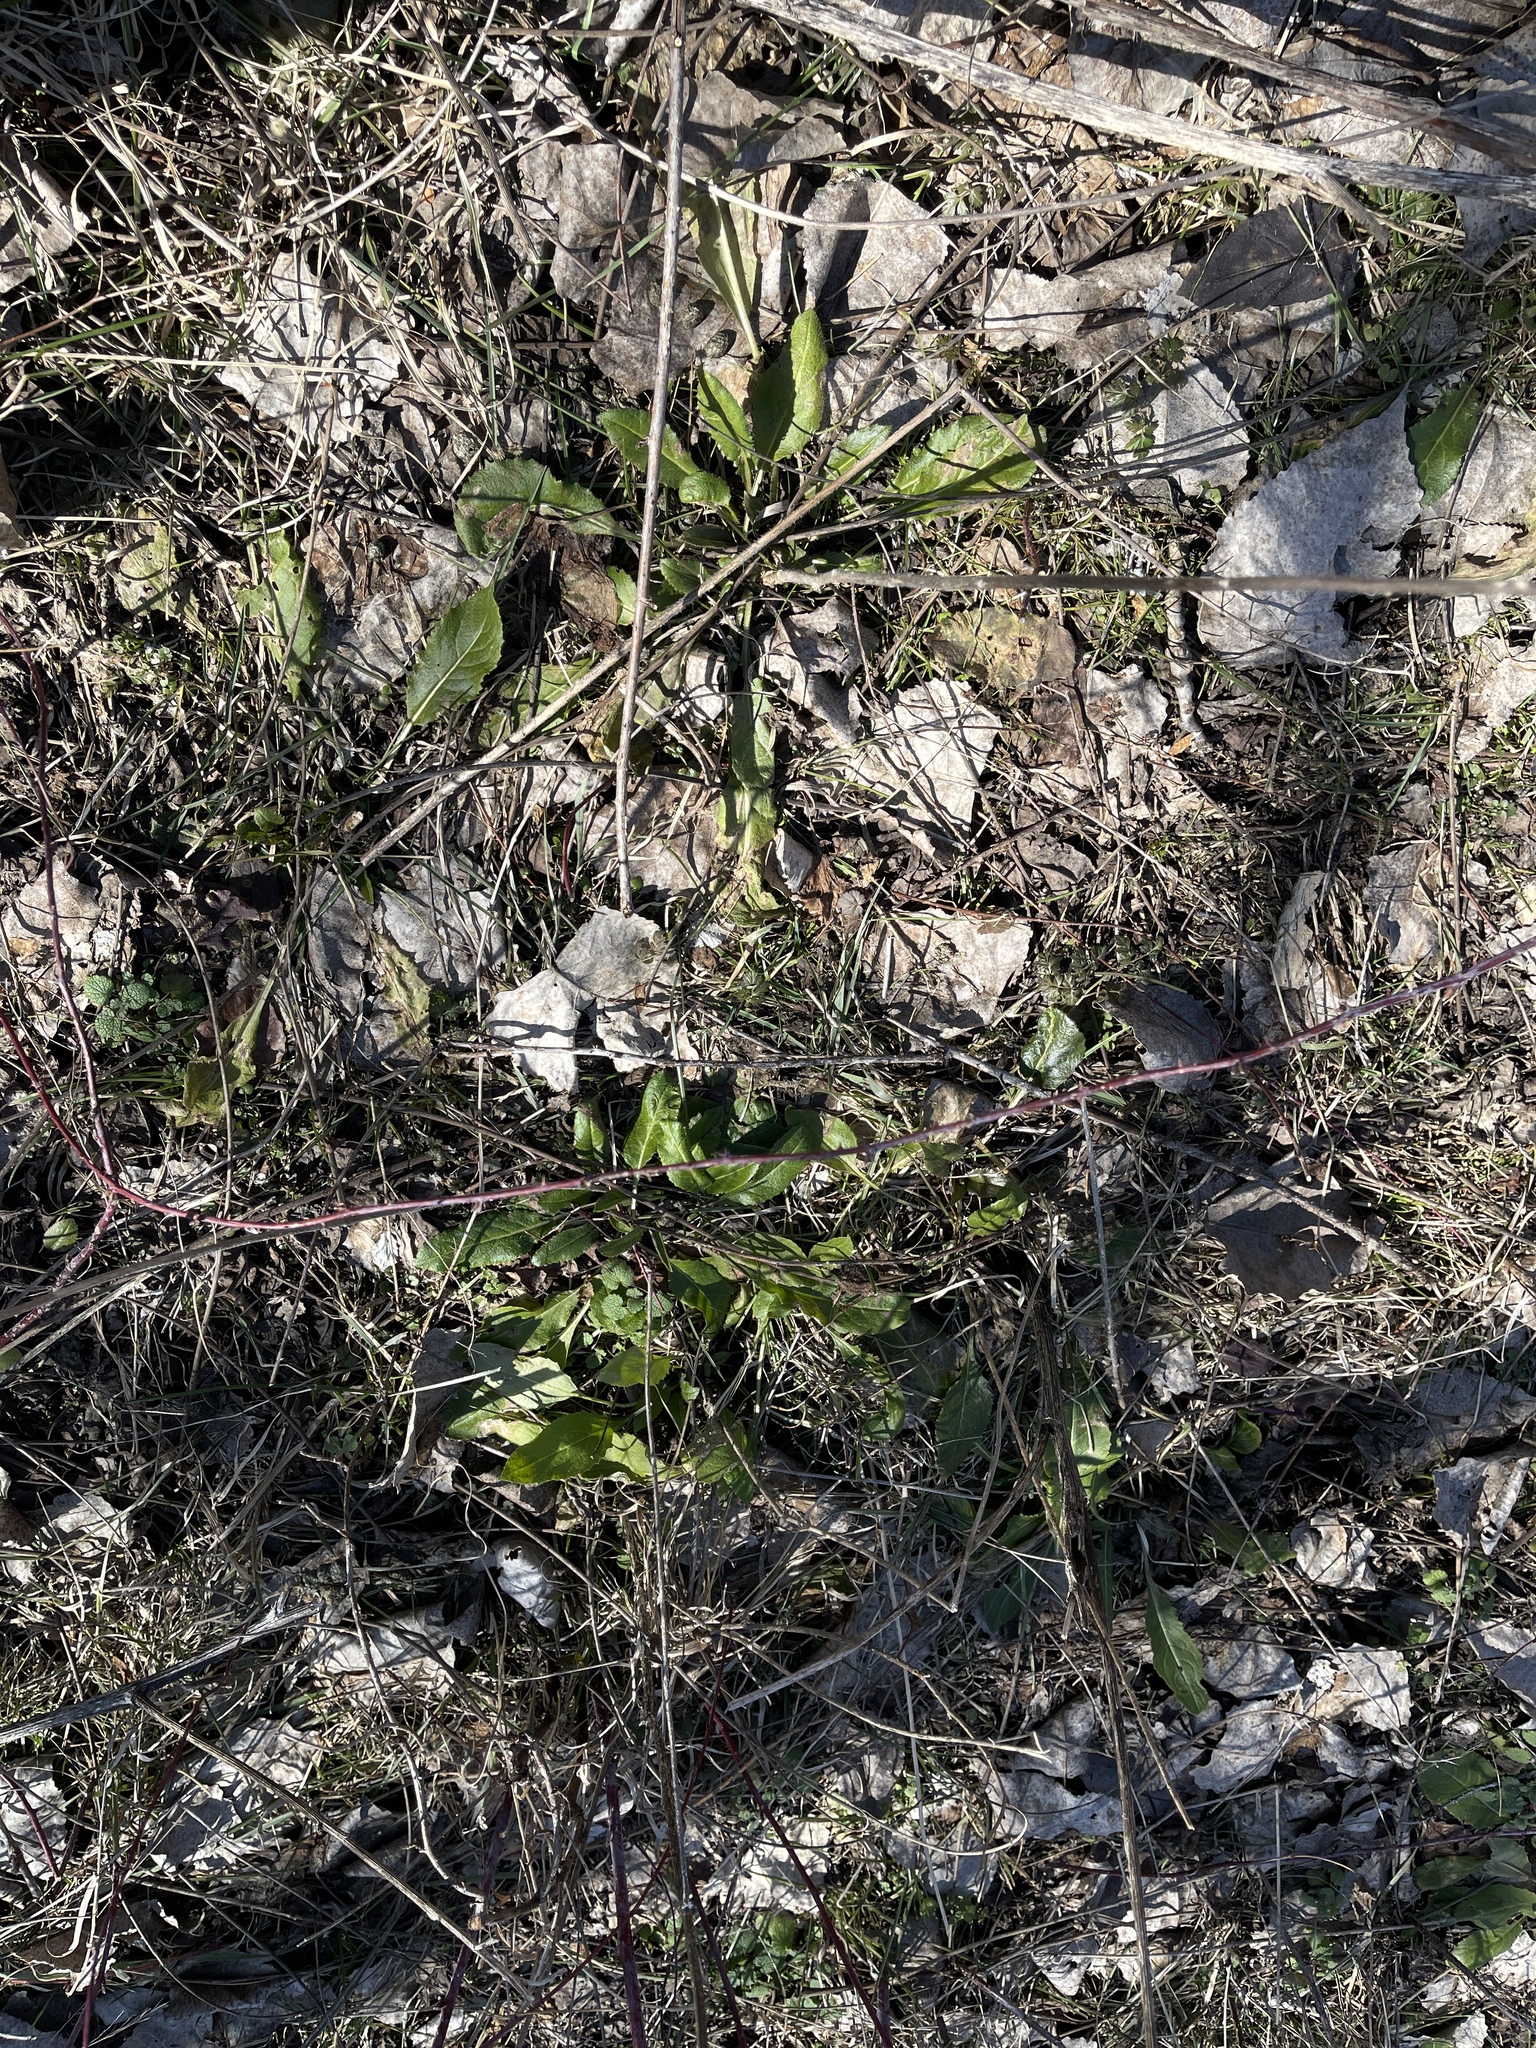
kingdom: Plantae
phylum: Tracheophyta
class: Magnoliopsida
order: Brassicales
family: Brassicaceae
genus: Hesperis
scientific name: Hesperis matronalis
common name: Dame's-violet
